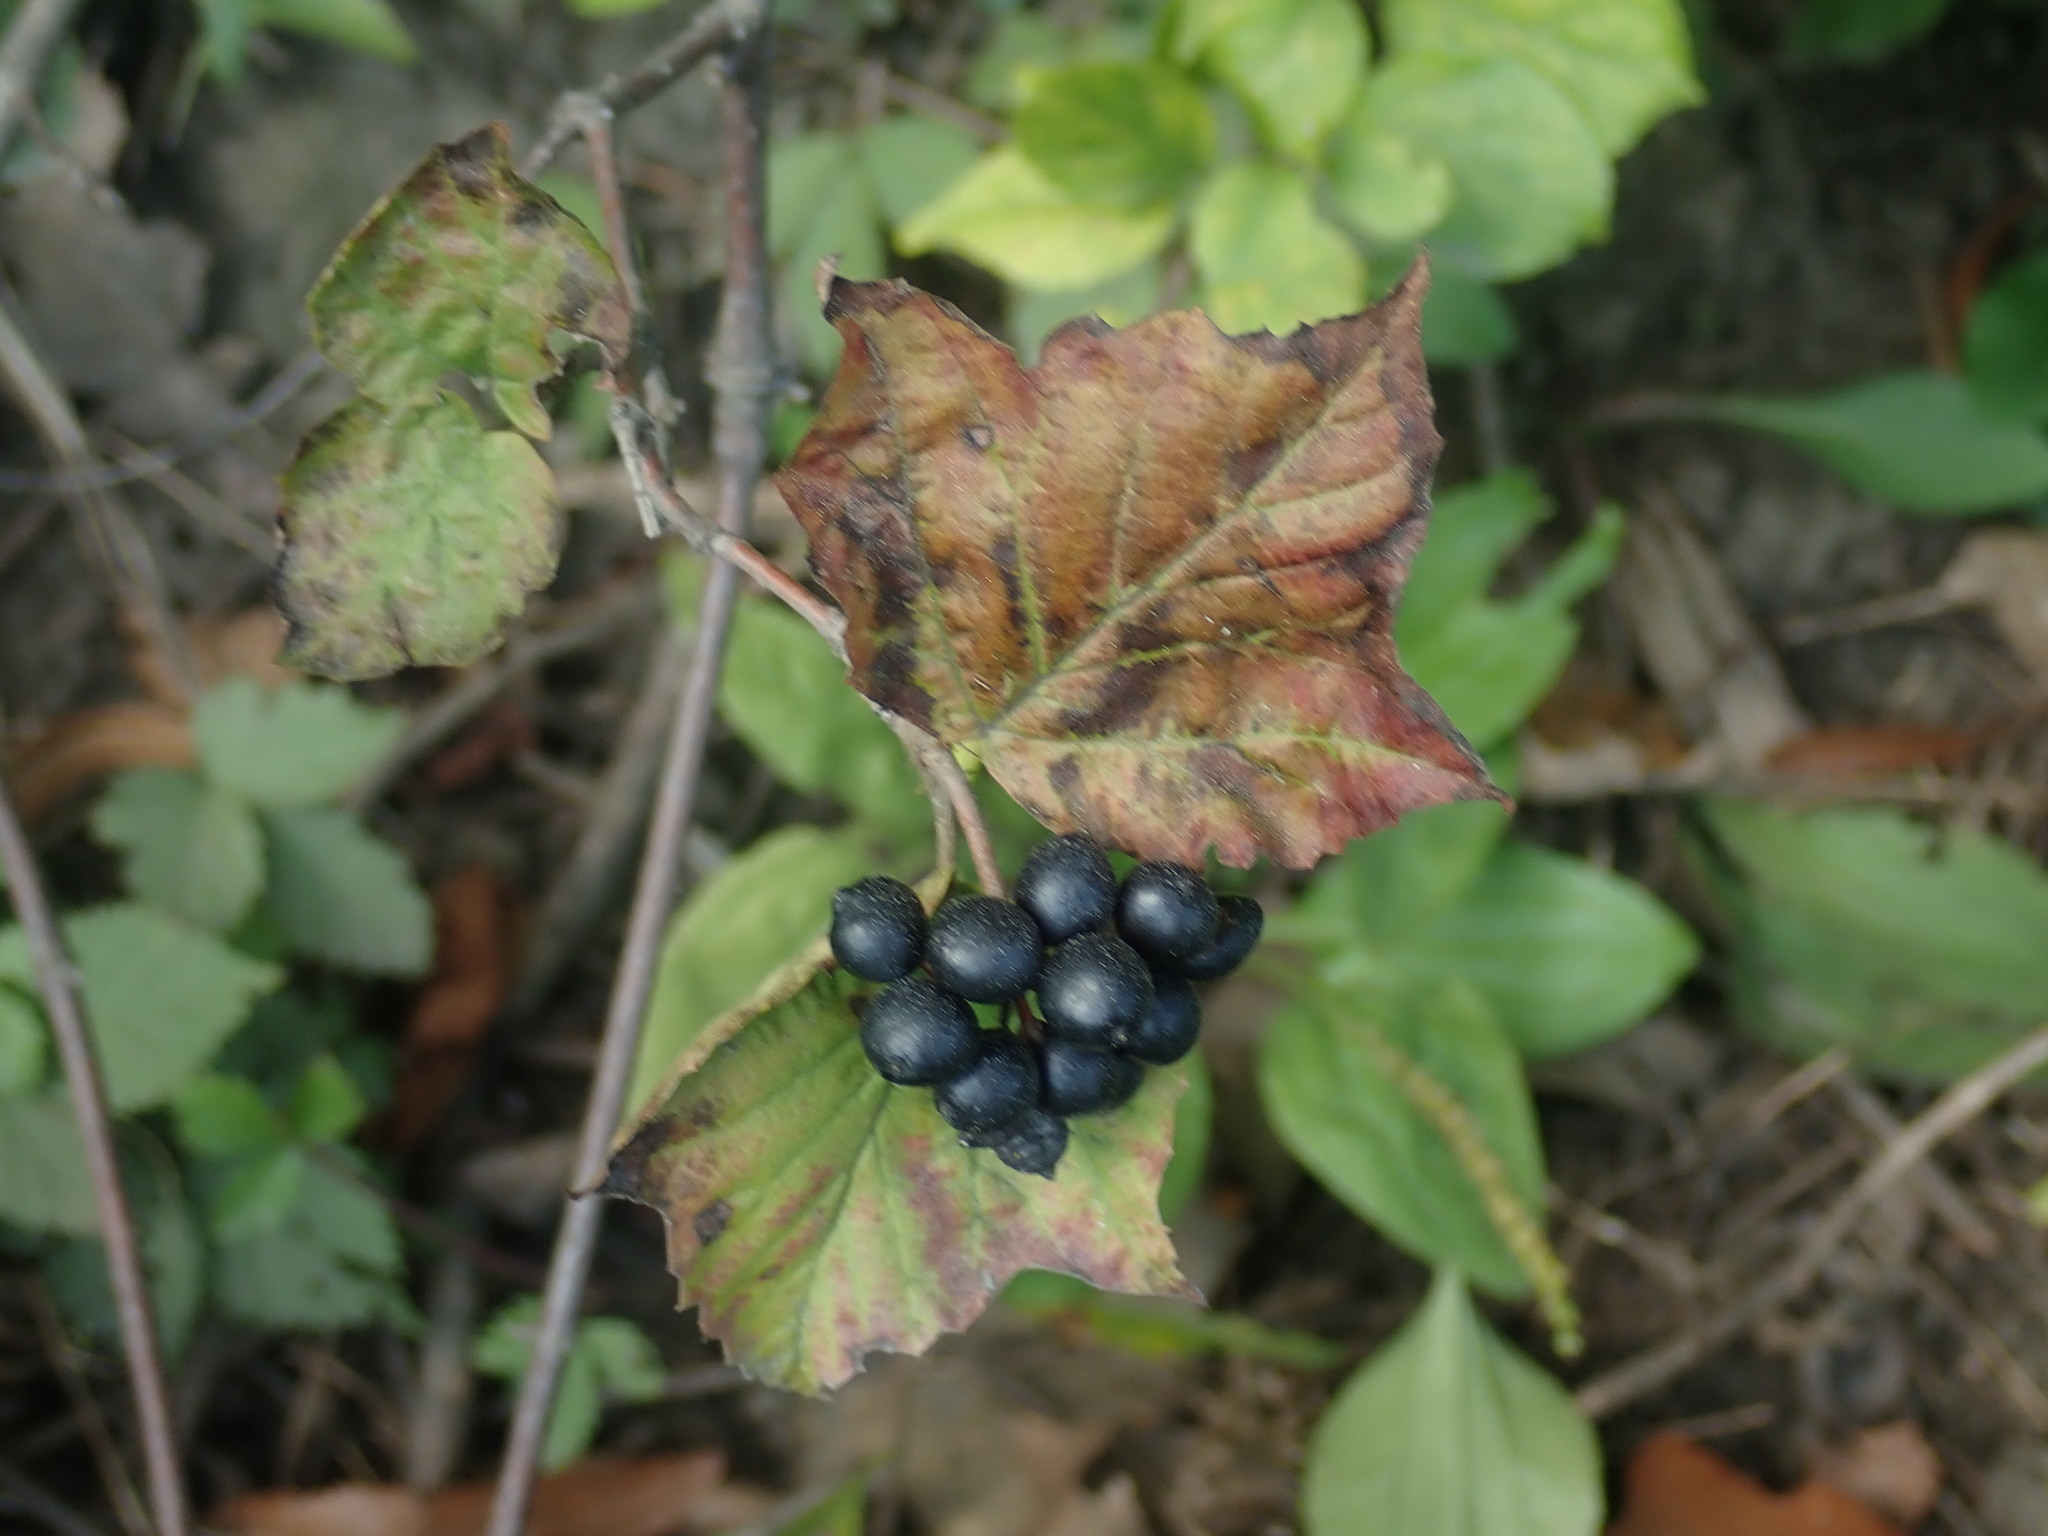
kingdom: Plantae
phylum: Tracheophyta
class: Magnoliopsida
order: Dipsacales
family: Viburnaceae
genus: Viburnum
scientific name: Viburnum acerifolium
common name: Dockmackie
